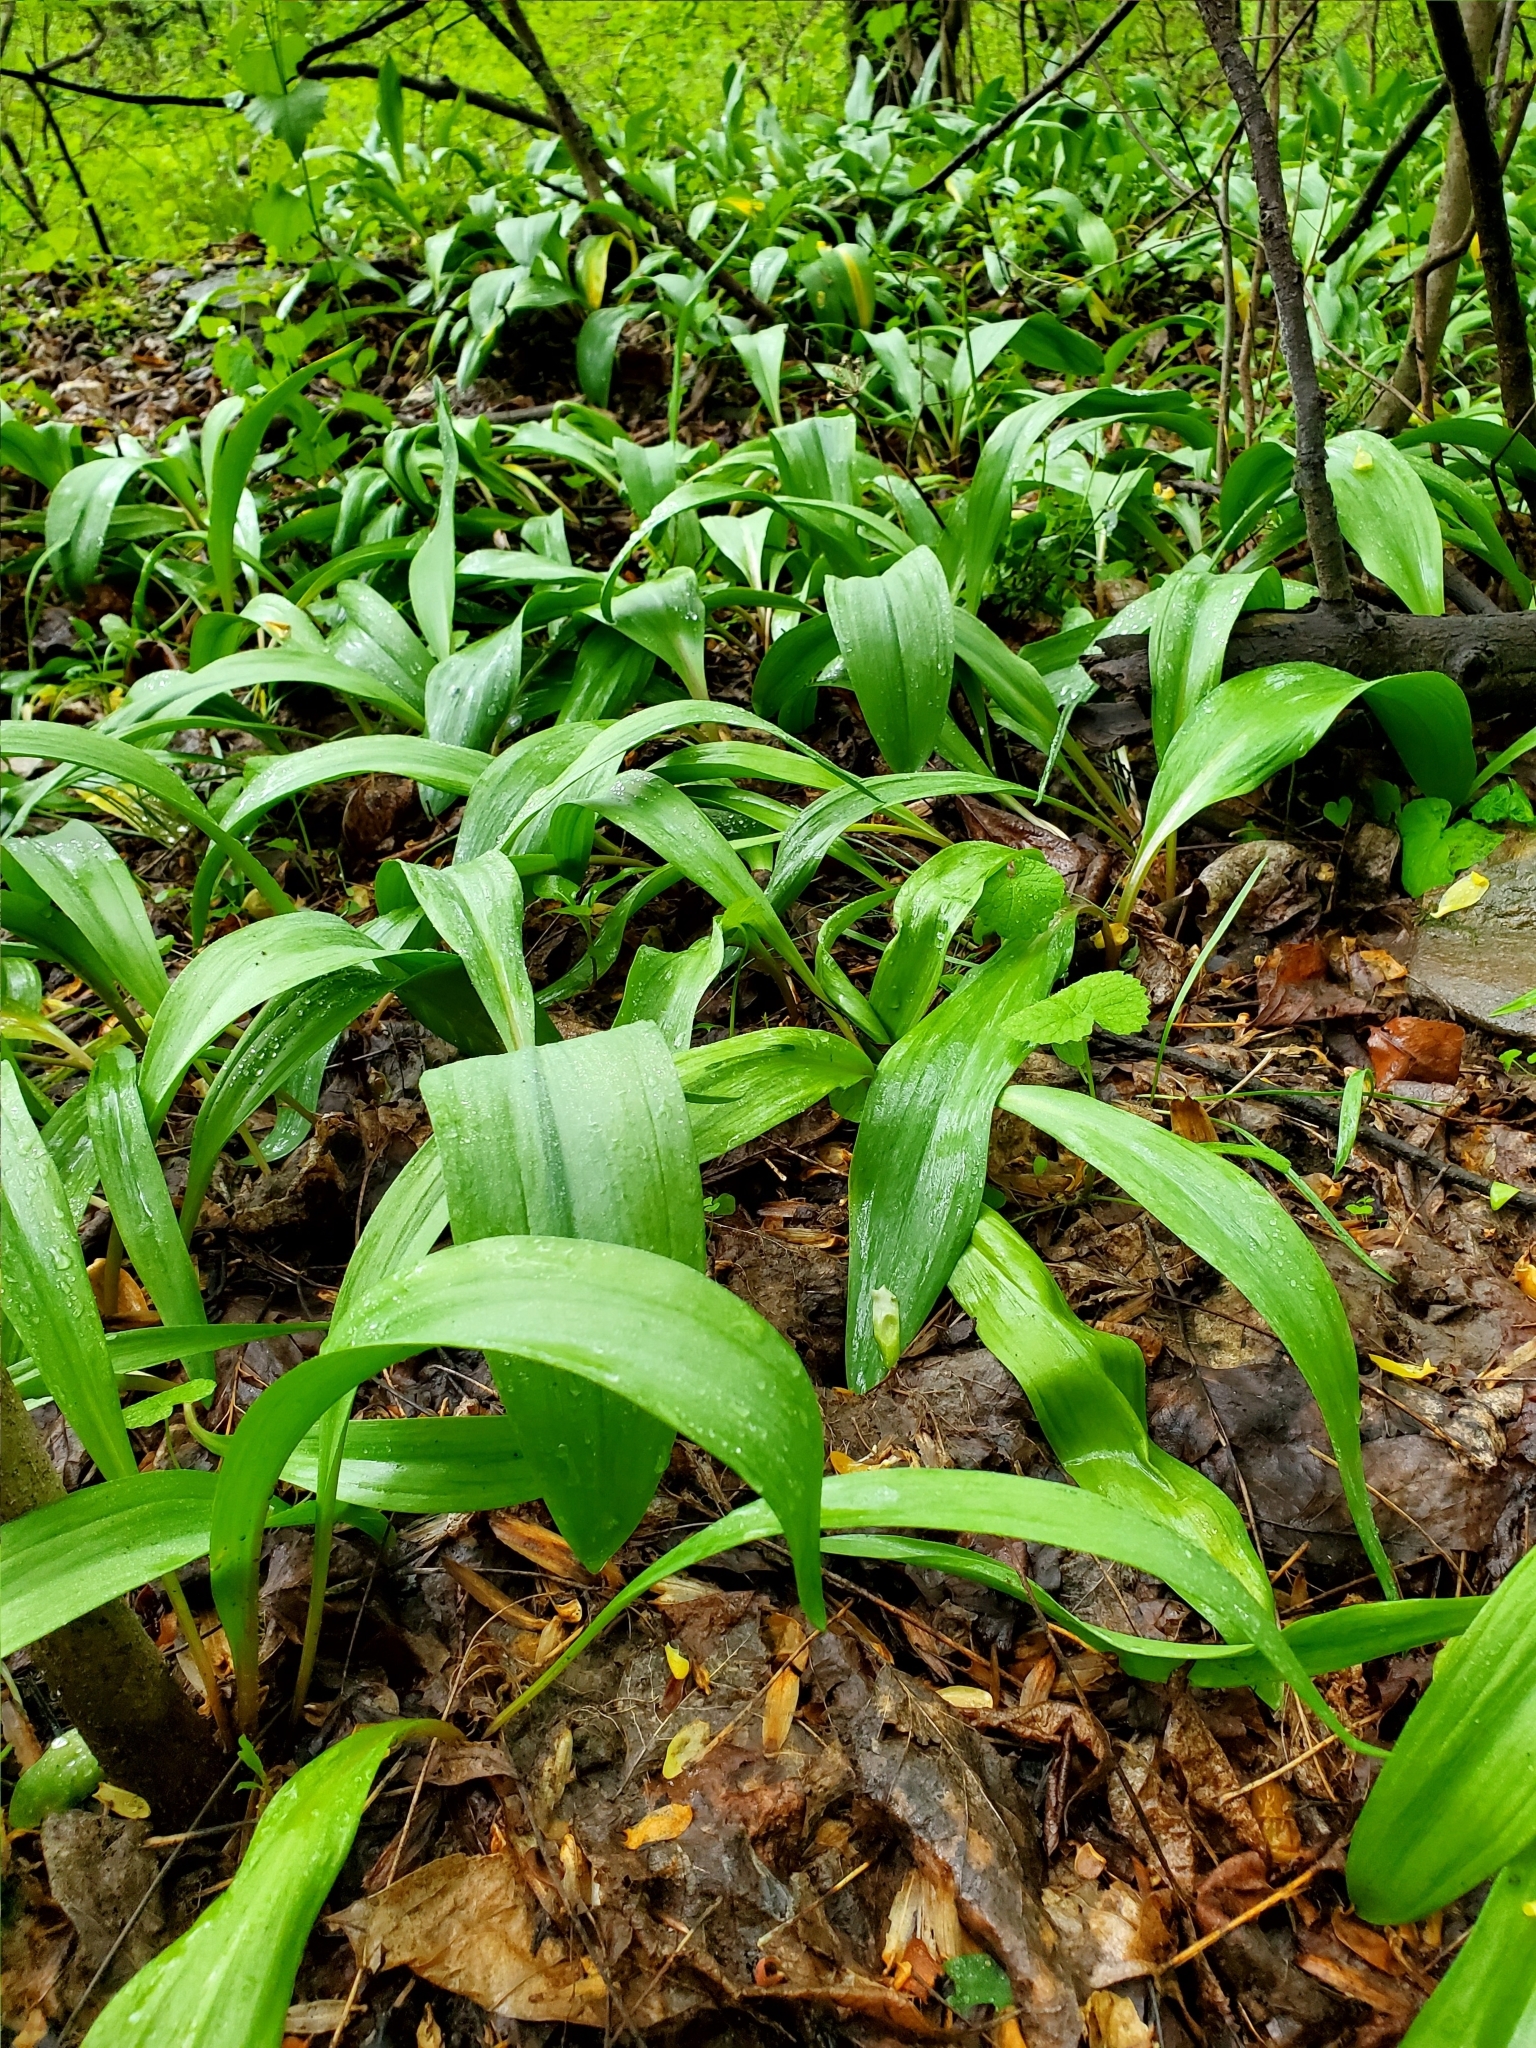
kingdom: Plantae
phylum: Tracheophyta
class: Liliopsida
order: Asparagales
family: Amaryllidaceae
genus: Allium
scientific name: Allium tricoccum
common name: Ramp
